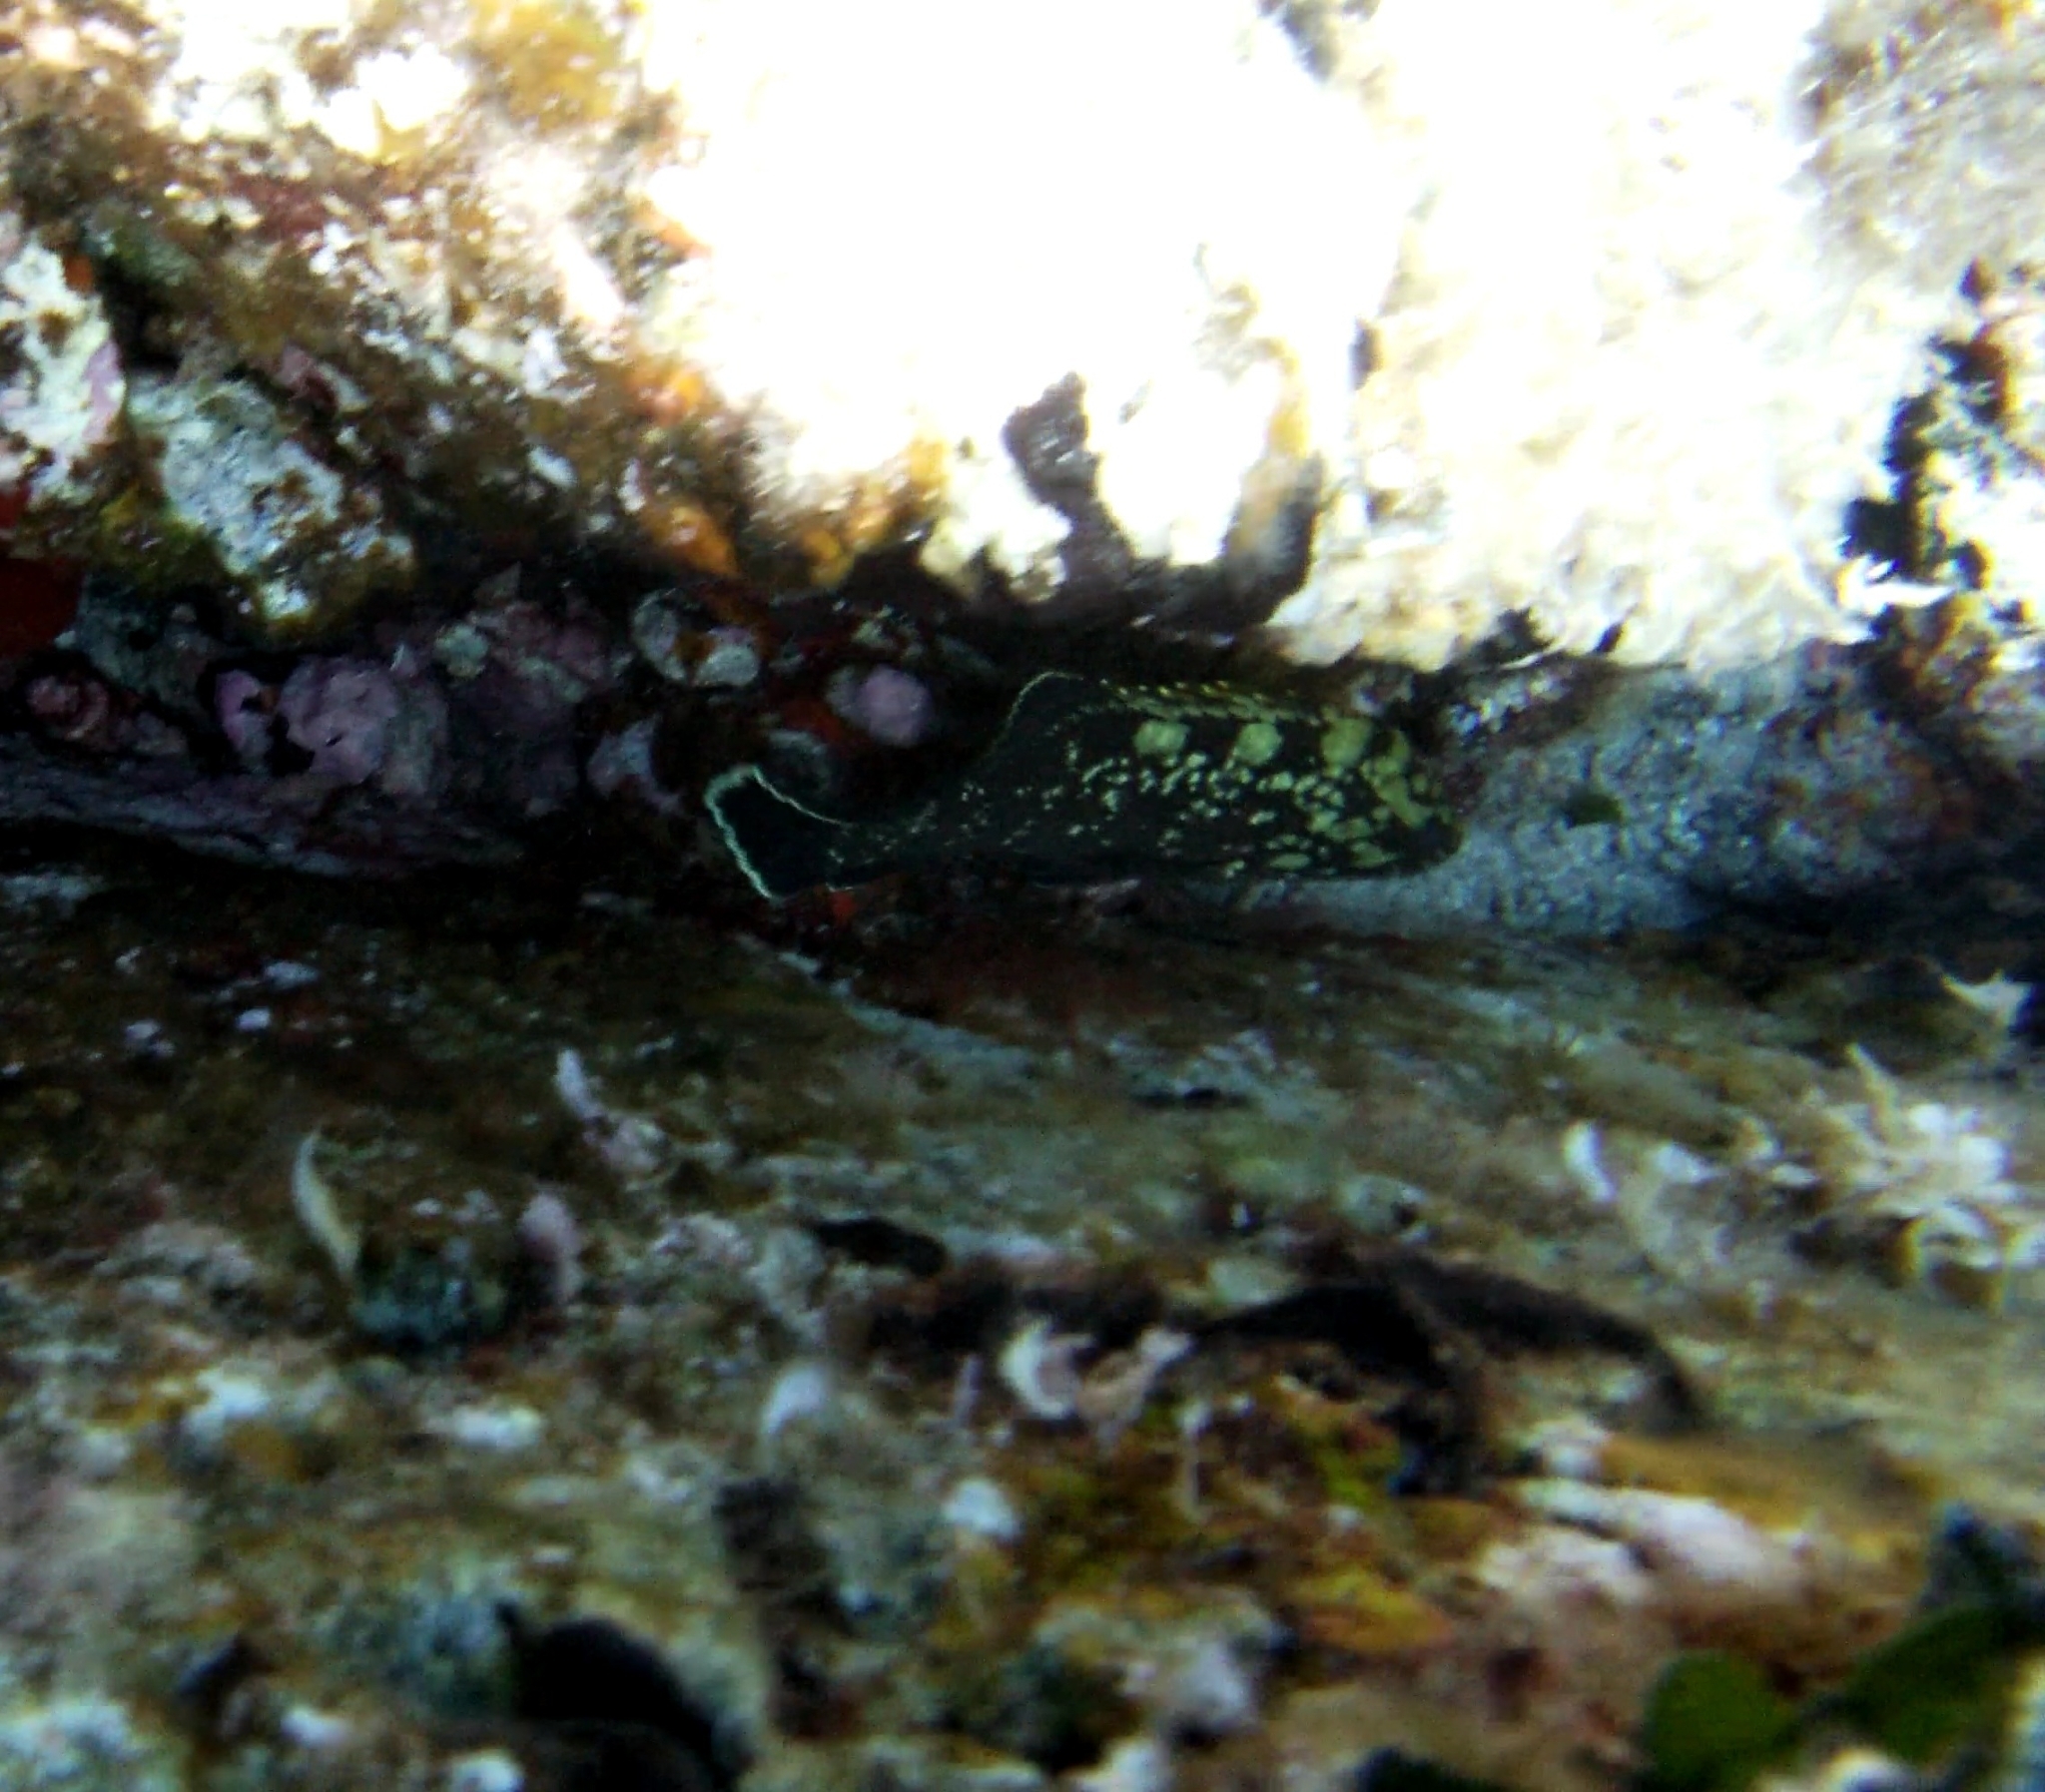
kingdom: Animalia
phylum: Chordata
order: Perciformes
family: Serranidae
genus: Epinephelus
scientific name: Epinephelus marginatus
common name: Dusky grouper
